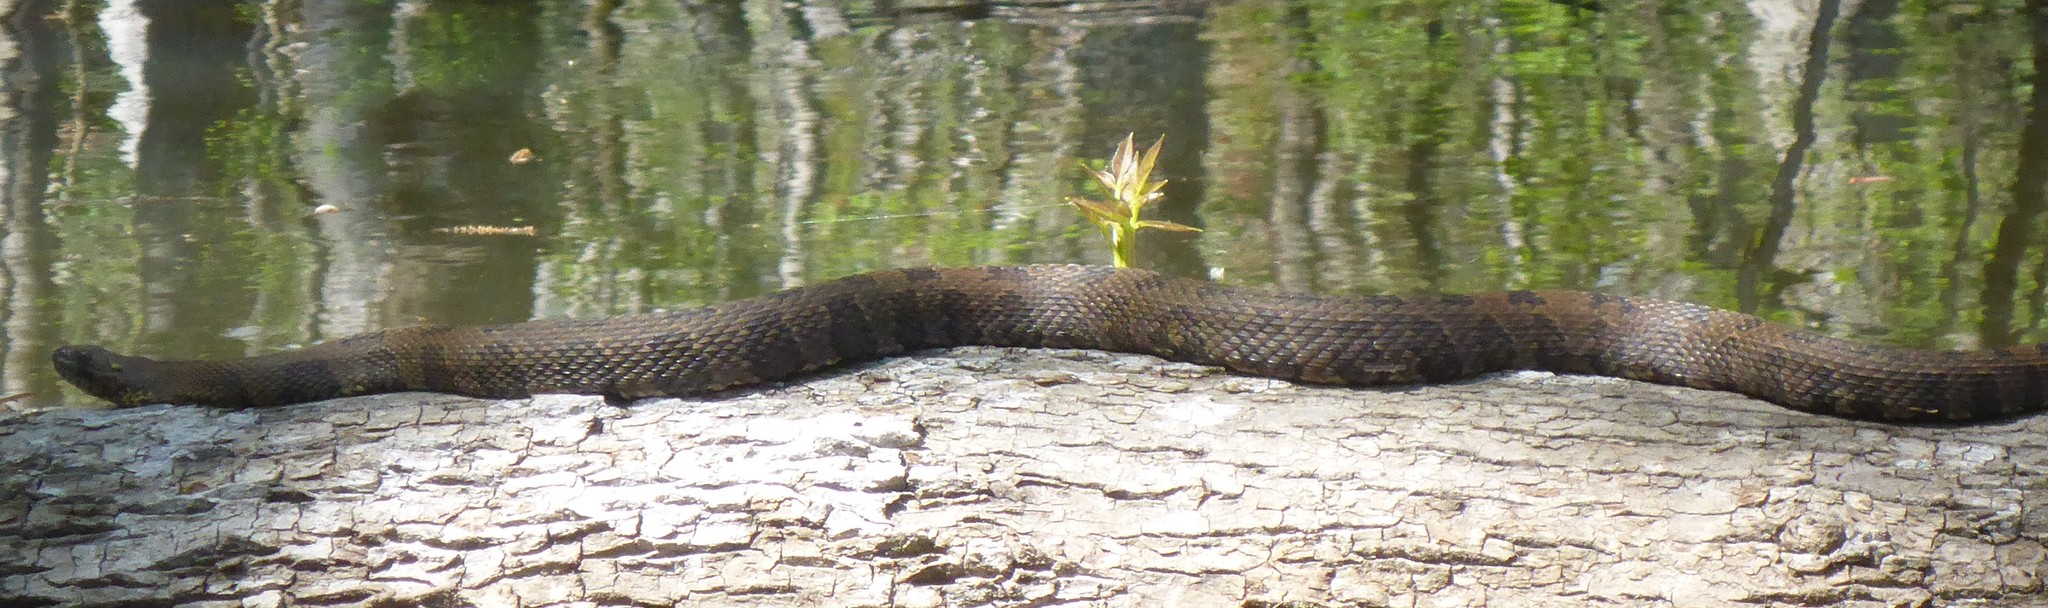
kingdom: Animalia
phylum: Chordata
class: Squamata
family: Colubridae
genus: Nerodia
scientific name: Nerodia taxispilota
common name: Brown water snake
